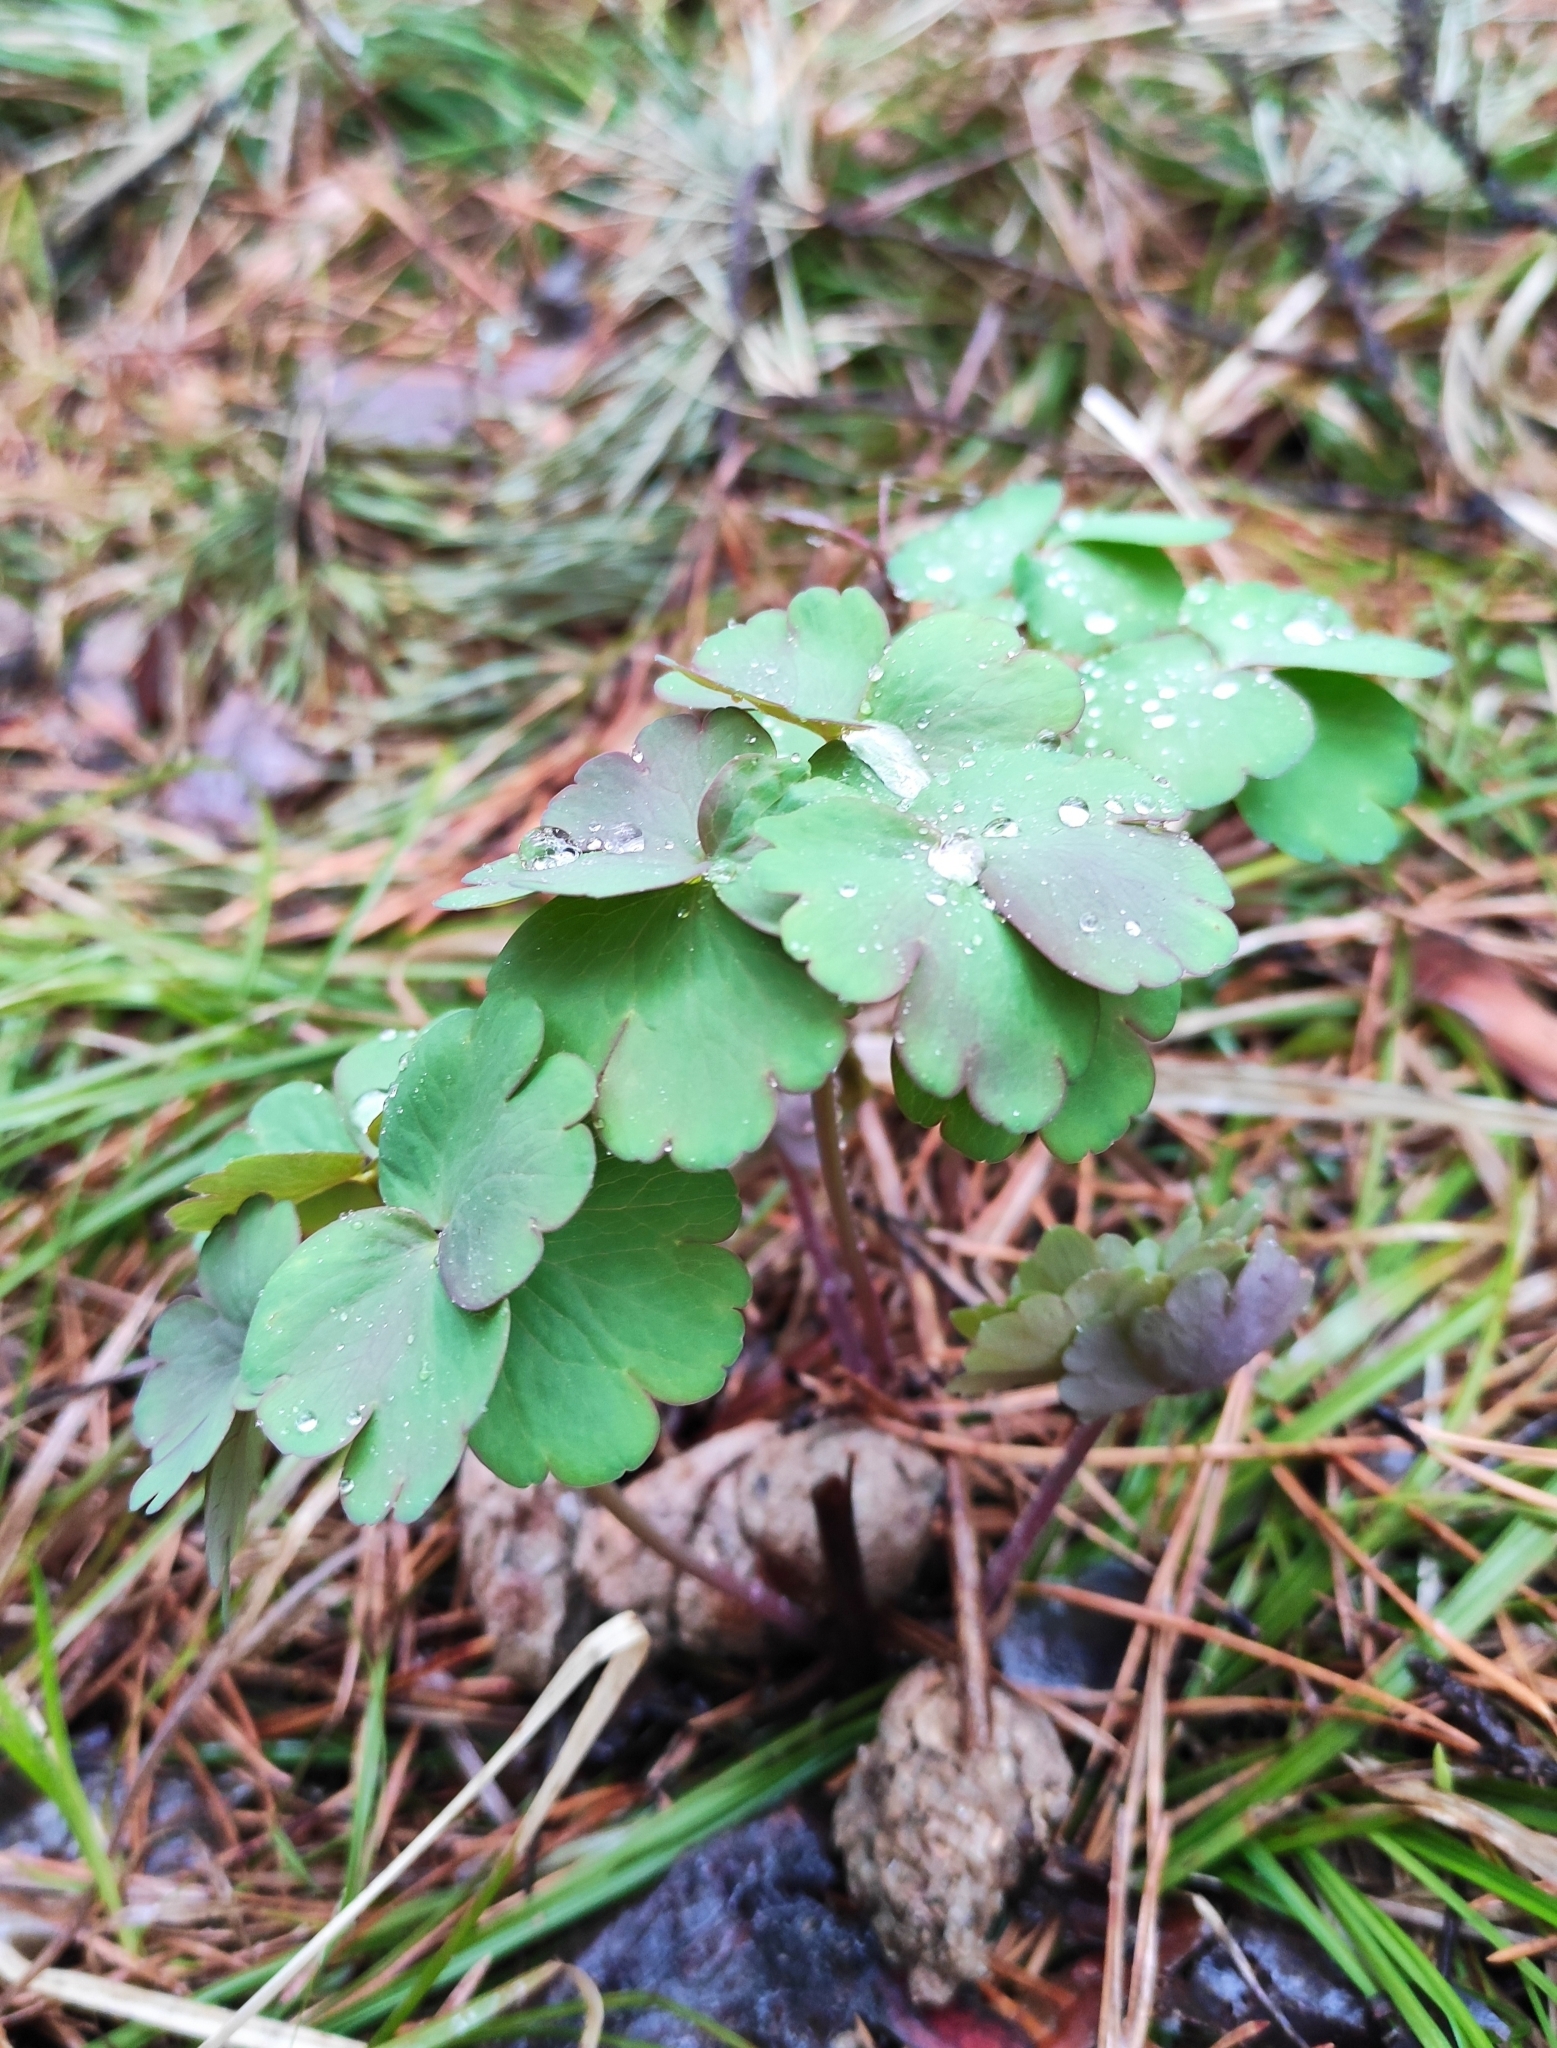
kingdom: Plantae
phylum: Tracheophyta
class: Magnoliopsida
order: Ranunculales
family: Ranunculaceae
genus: Aquilegia
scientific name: Aquilegia sibirica
